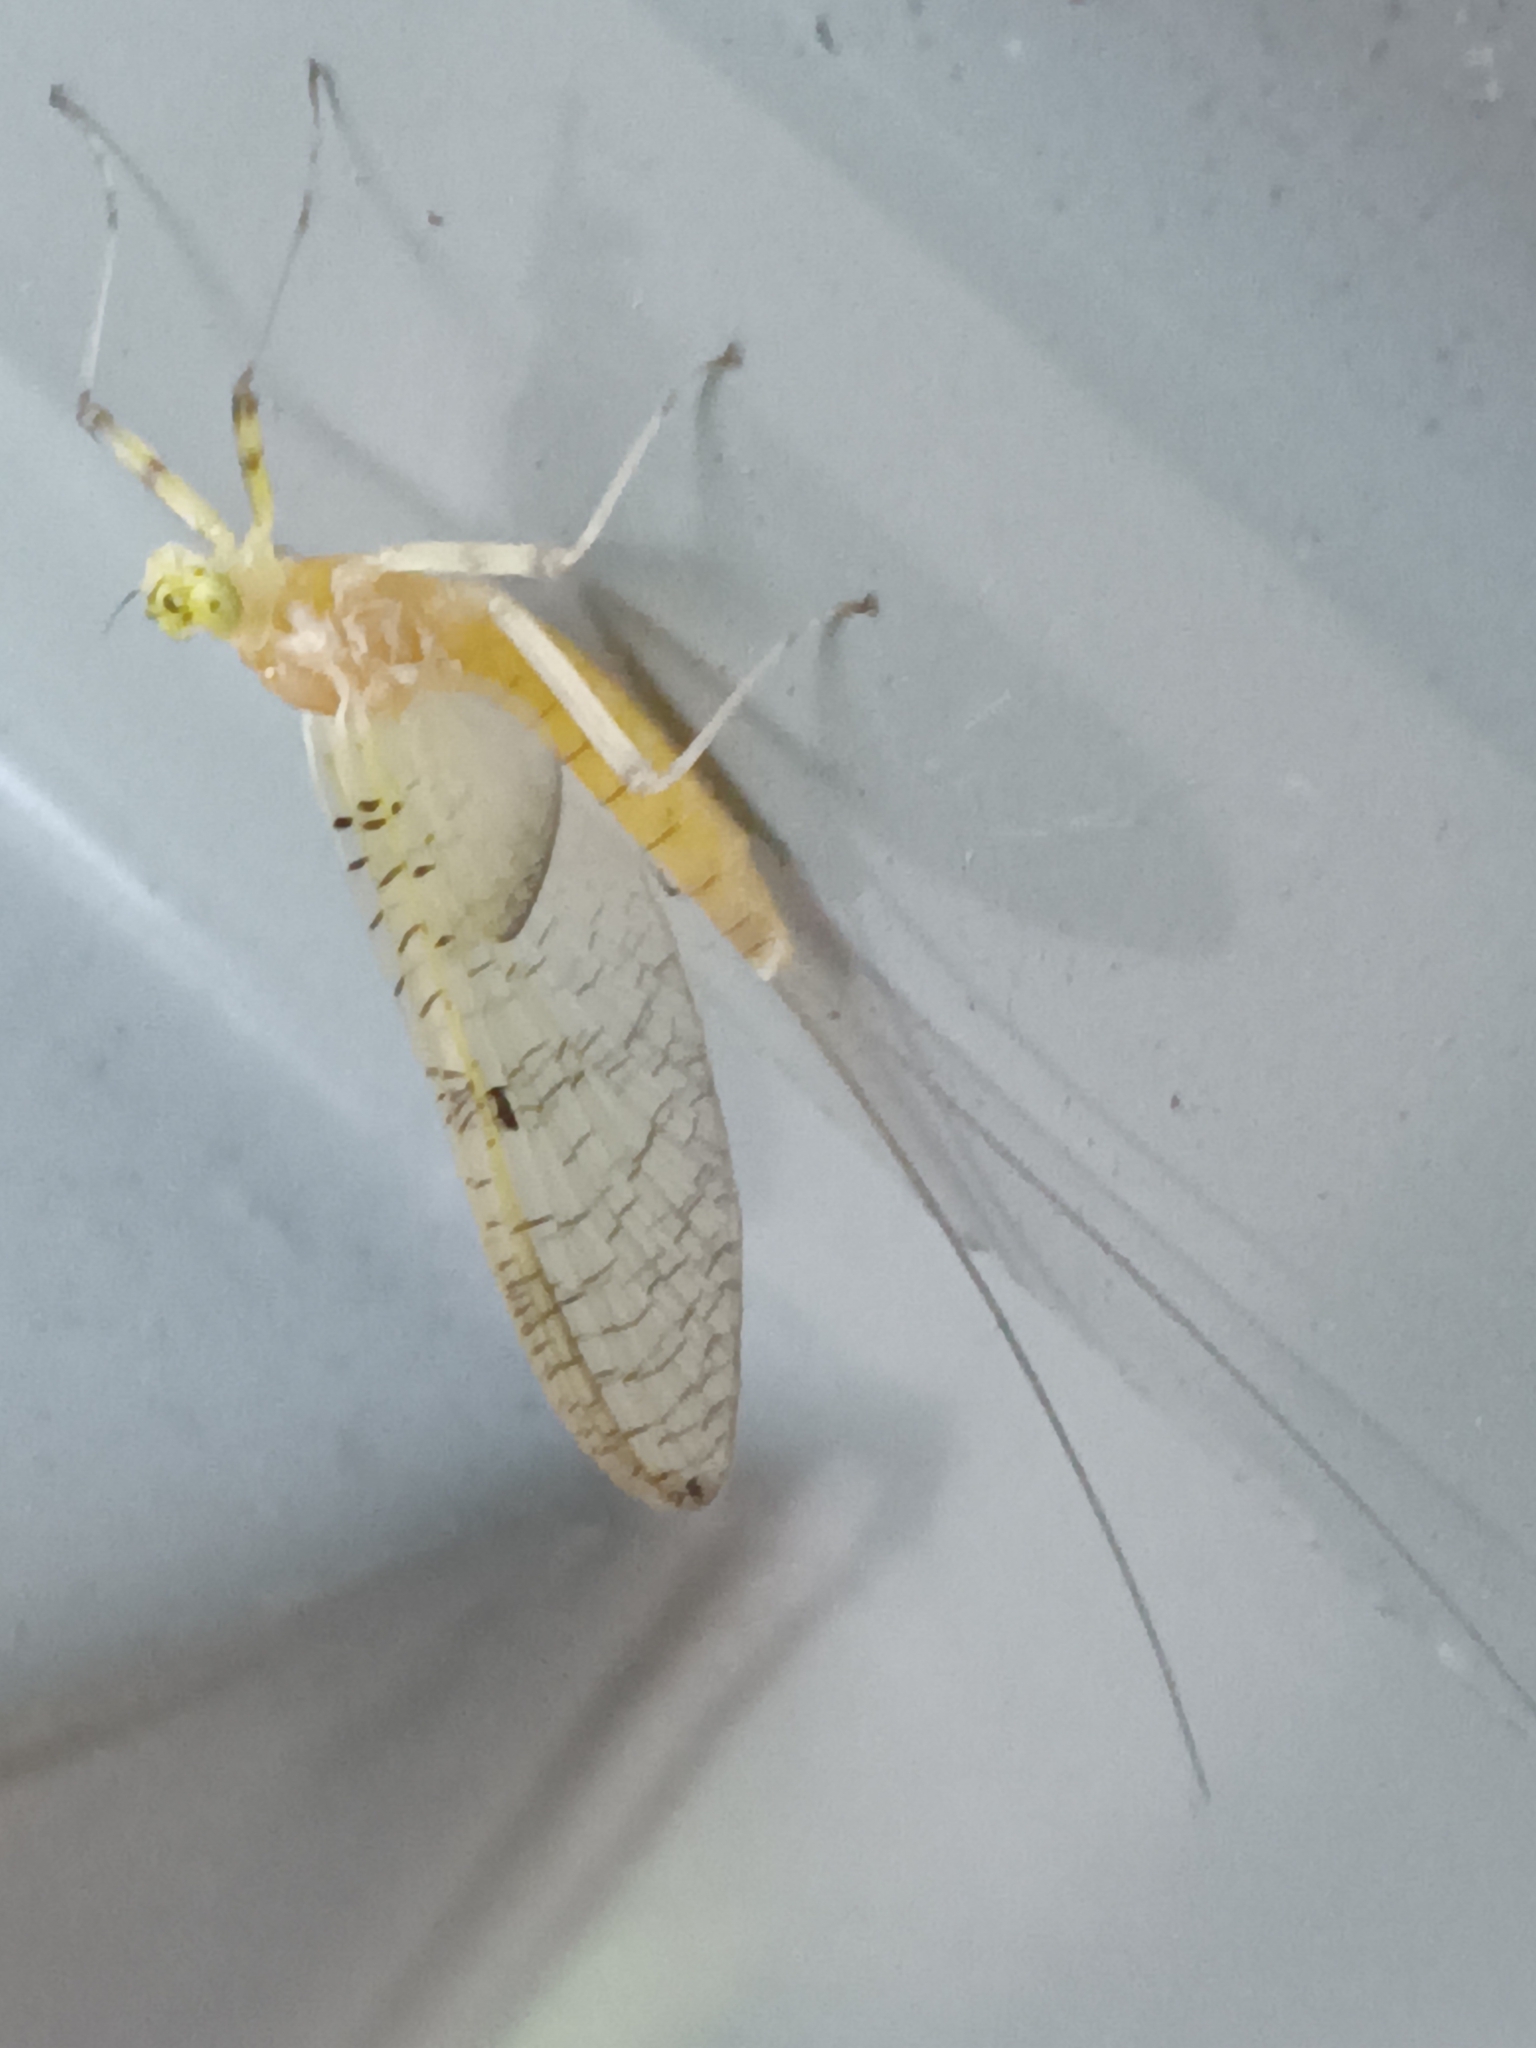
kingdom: Animalia
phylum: Arthropoda
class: Insecta
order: Ephemeroptera
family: Heptageniidae
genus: Stenacron
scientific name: Stenacron interpunctatum
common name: Orange cahill
